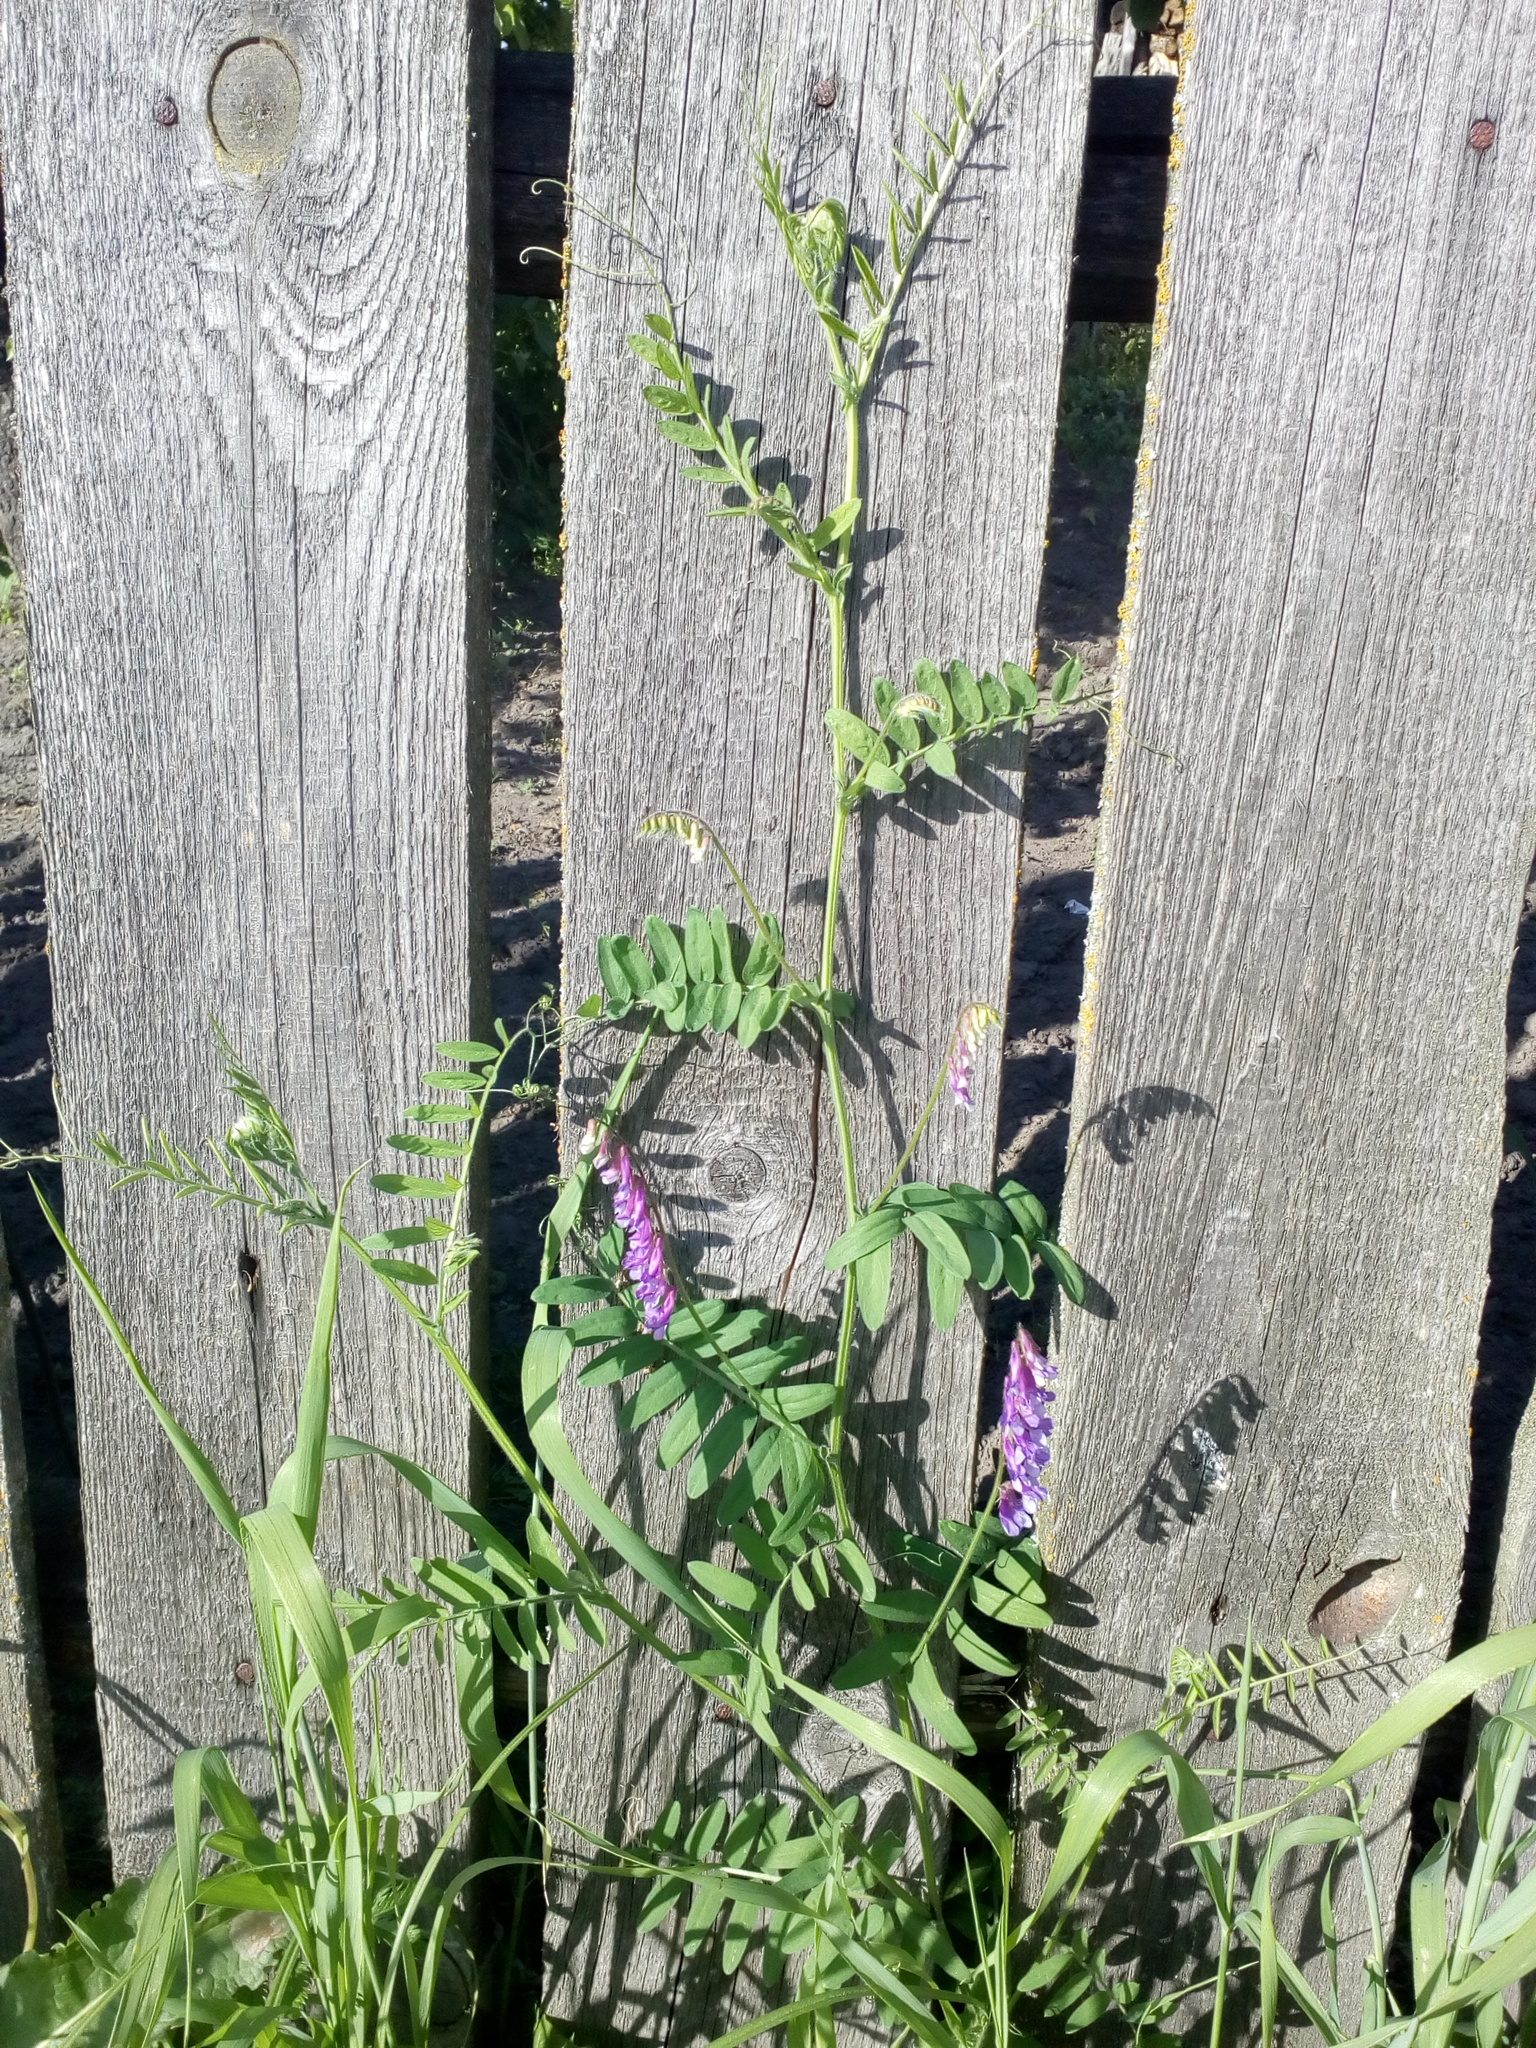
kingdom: Plantae
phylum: Tracheophyta
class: Magnoliopsida
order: Fabales
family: Fabaceae
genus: Vicia
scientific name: Vicia cracca
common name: Bird vetch
